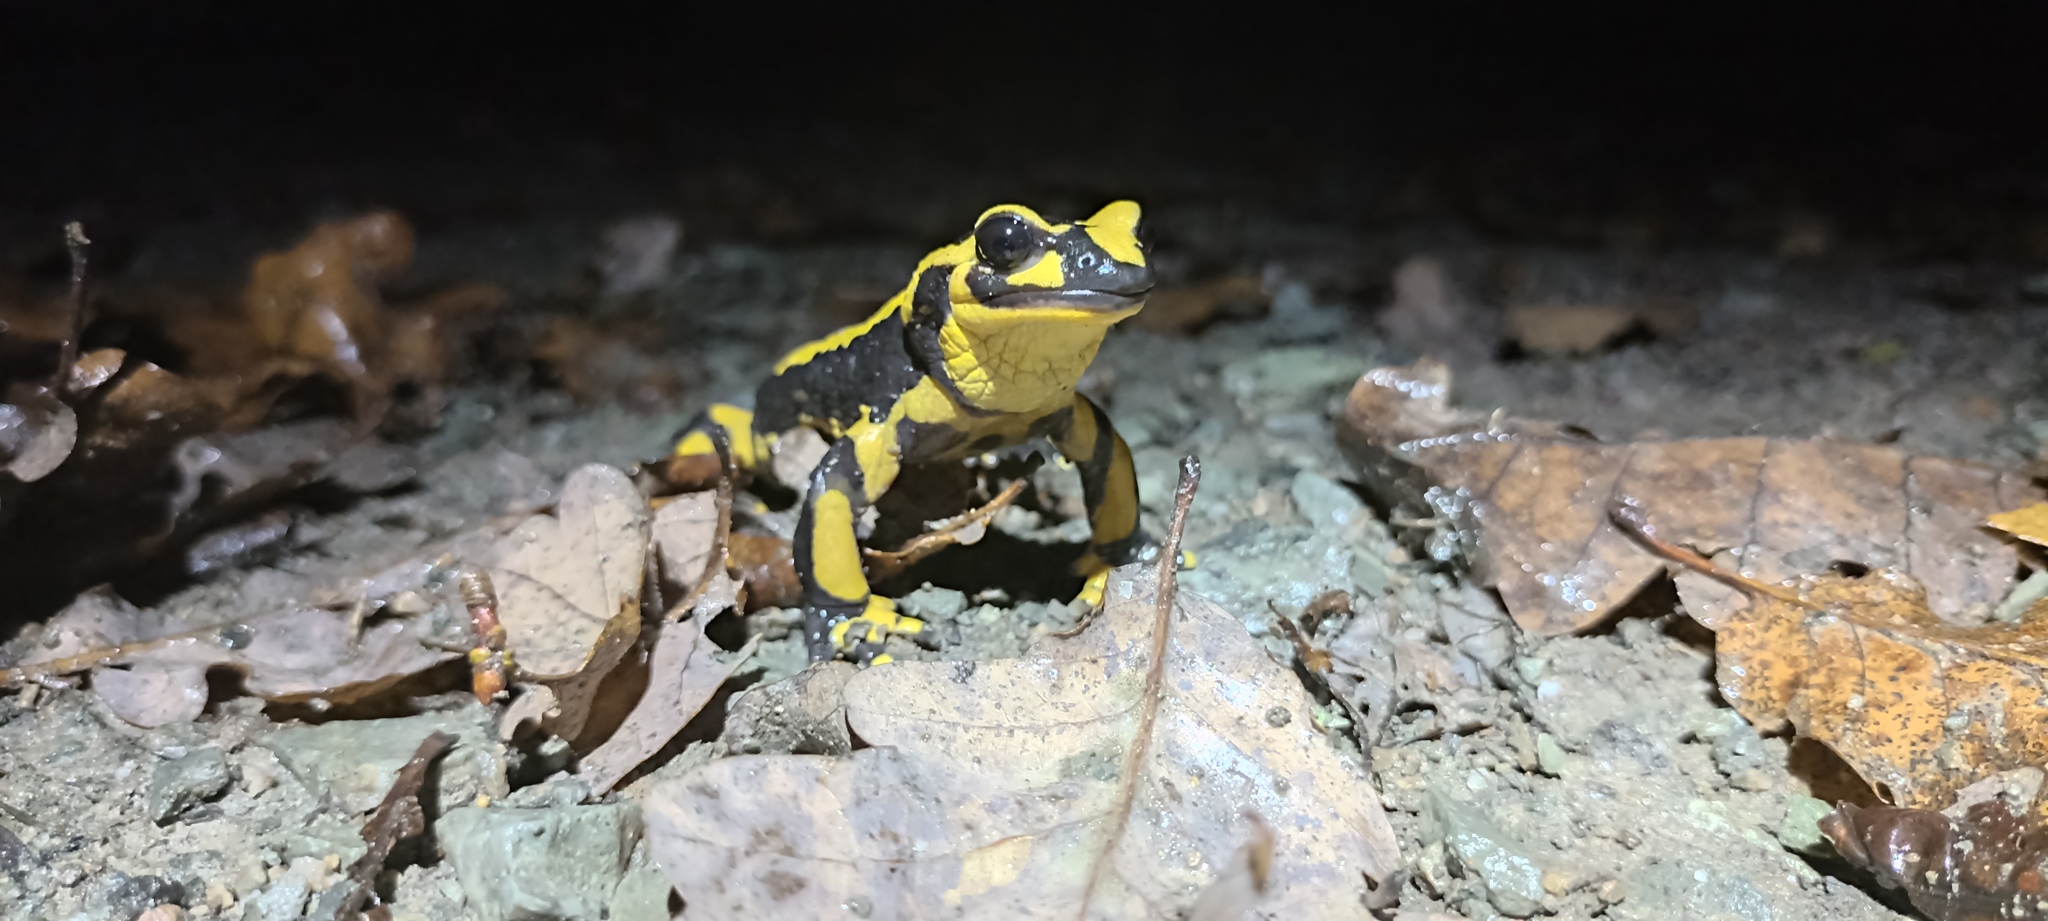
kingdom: Animalia
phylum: Chordata
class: Amphibia
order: Caudata
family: Salamandridae
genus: Salamandra
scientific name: Salamandra salamandra
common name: Fire salamander
